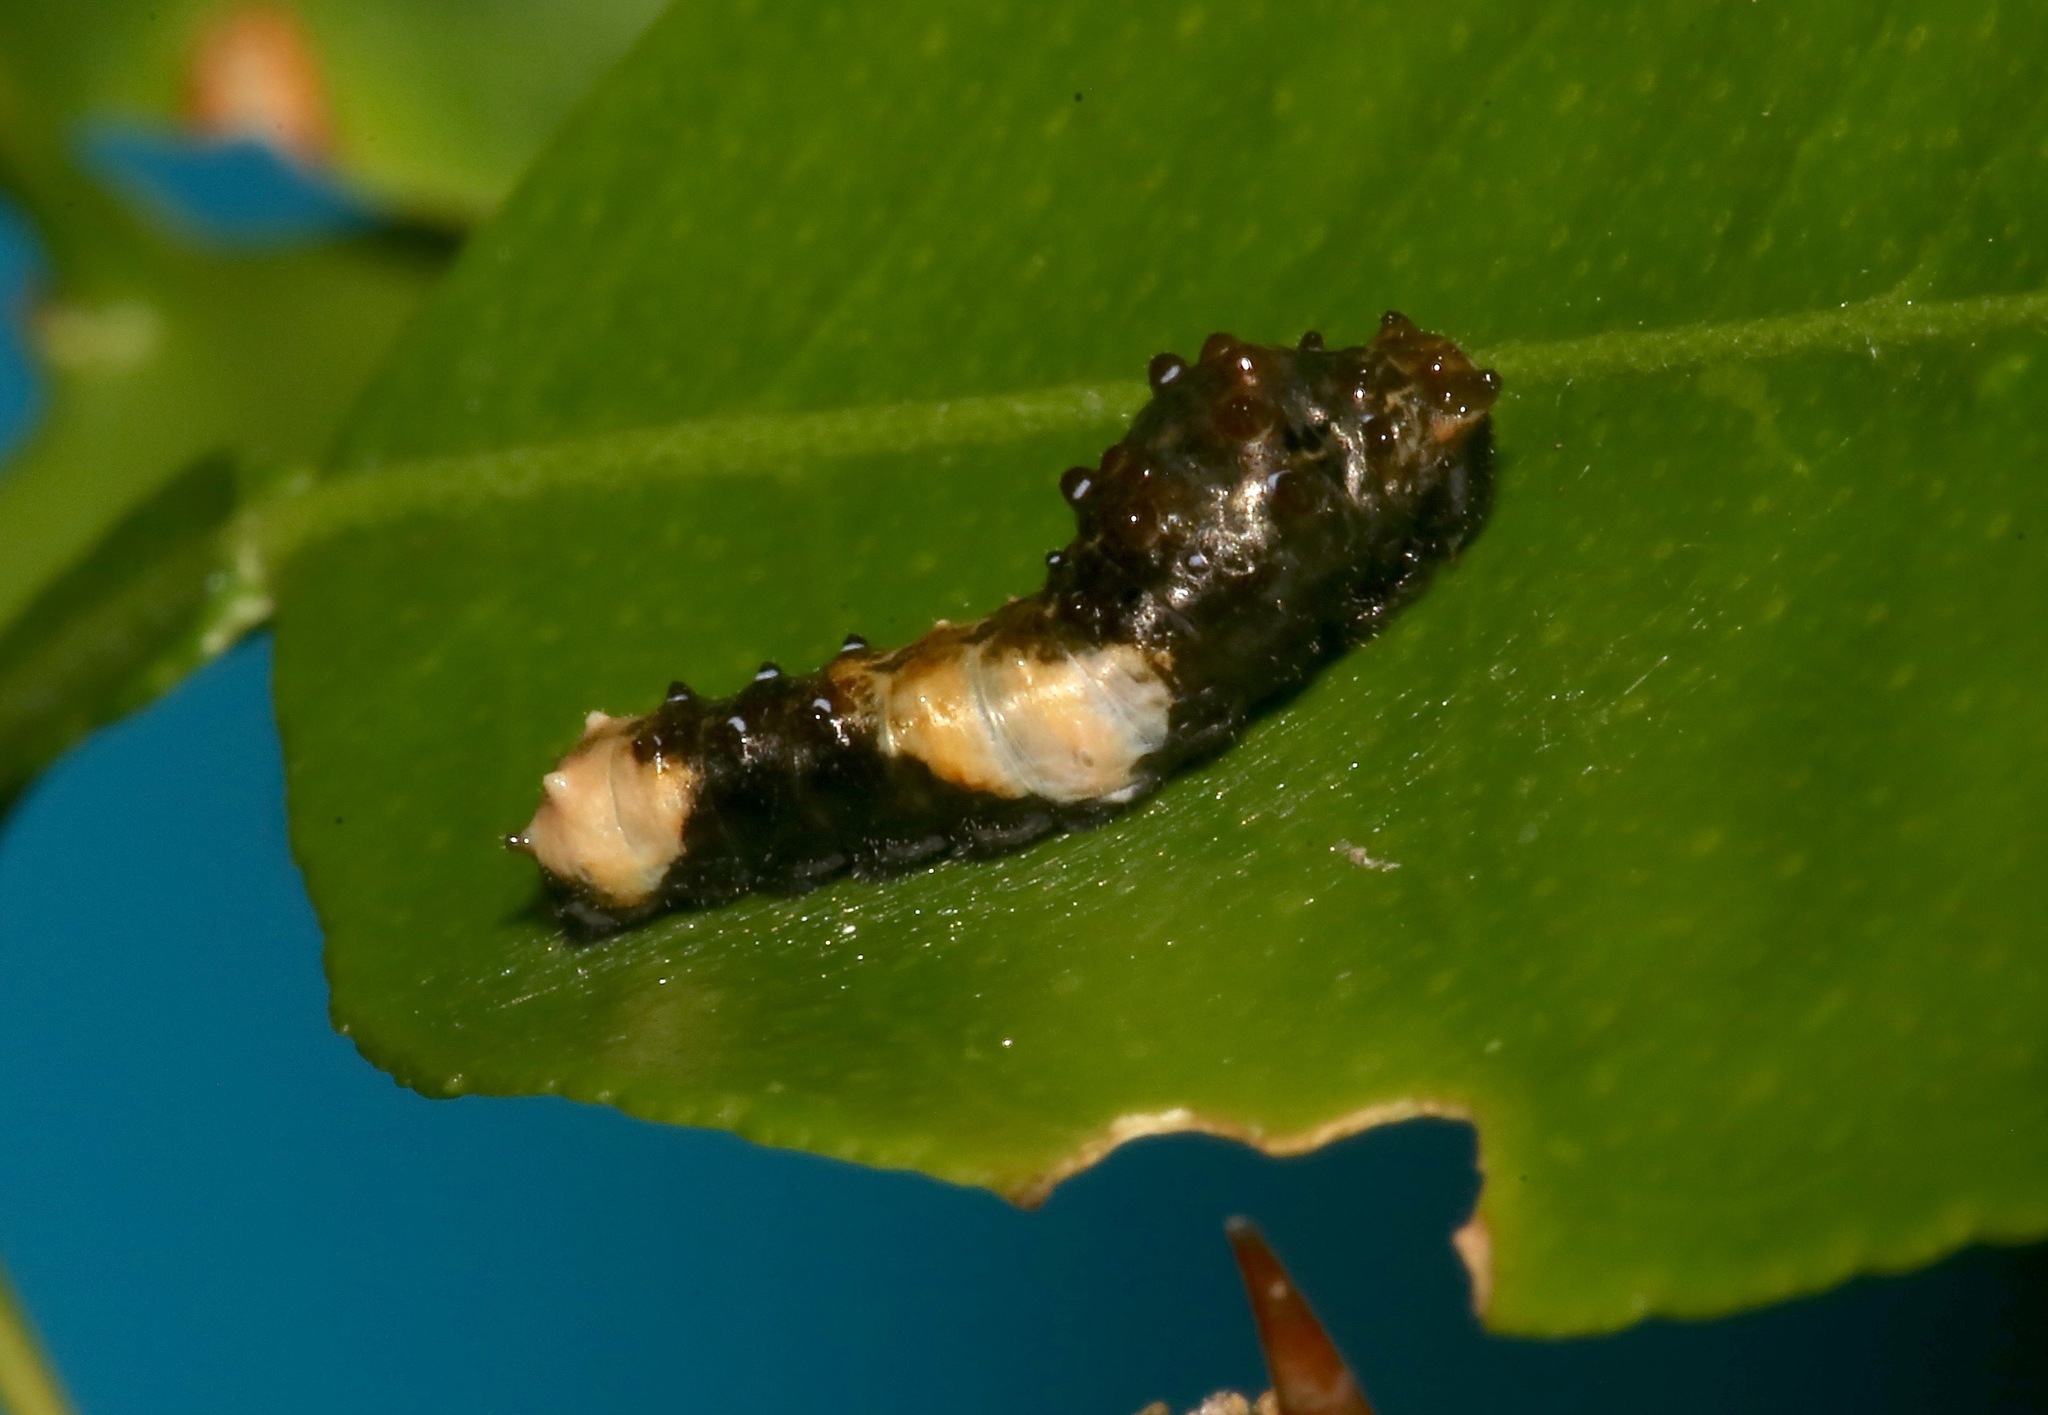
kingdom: Animalia
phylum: Arthropoda
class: Insecta
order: Lepidoptera
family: Papilionidae
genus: Papilio
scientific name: Papilio cresphontes
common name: Giant swallowtail
